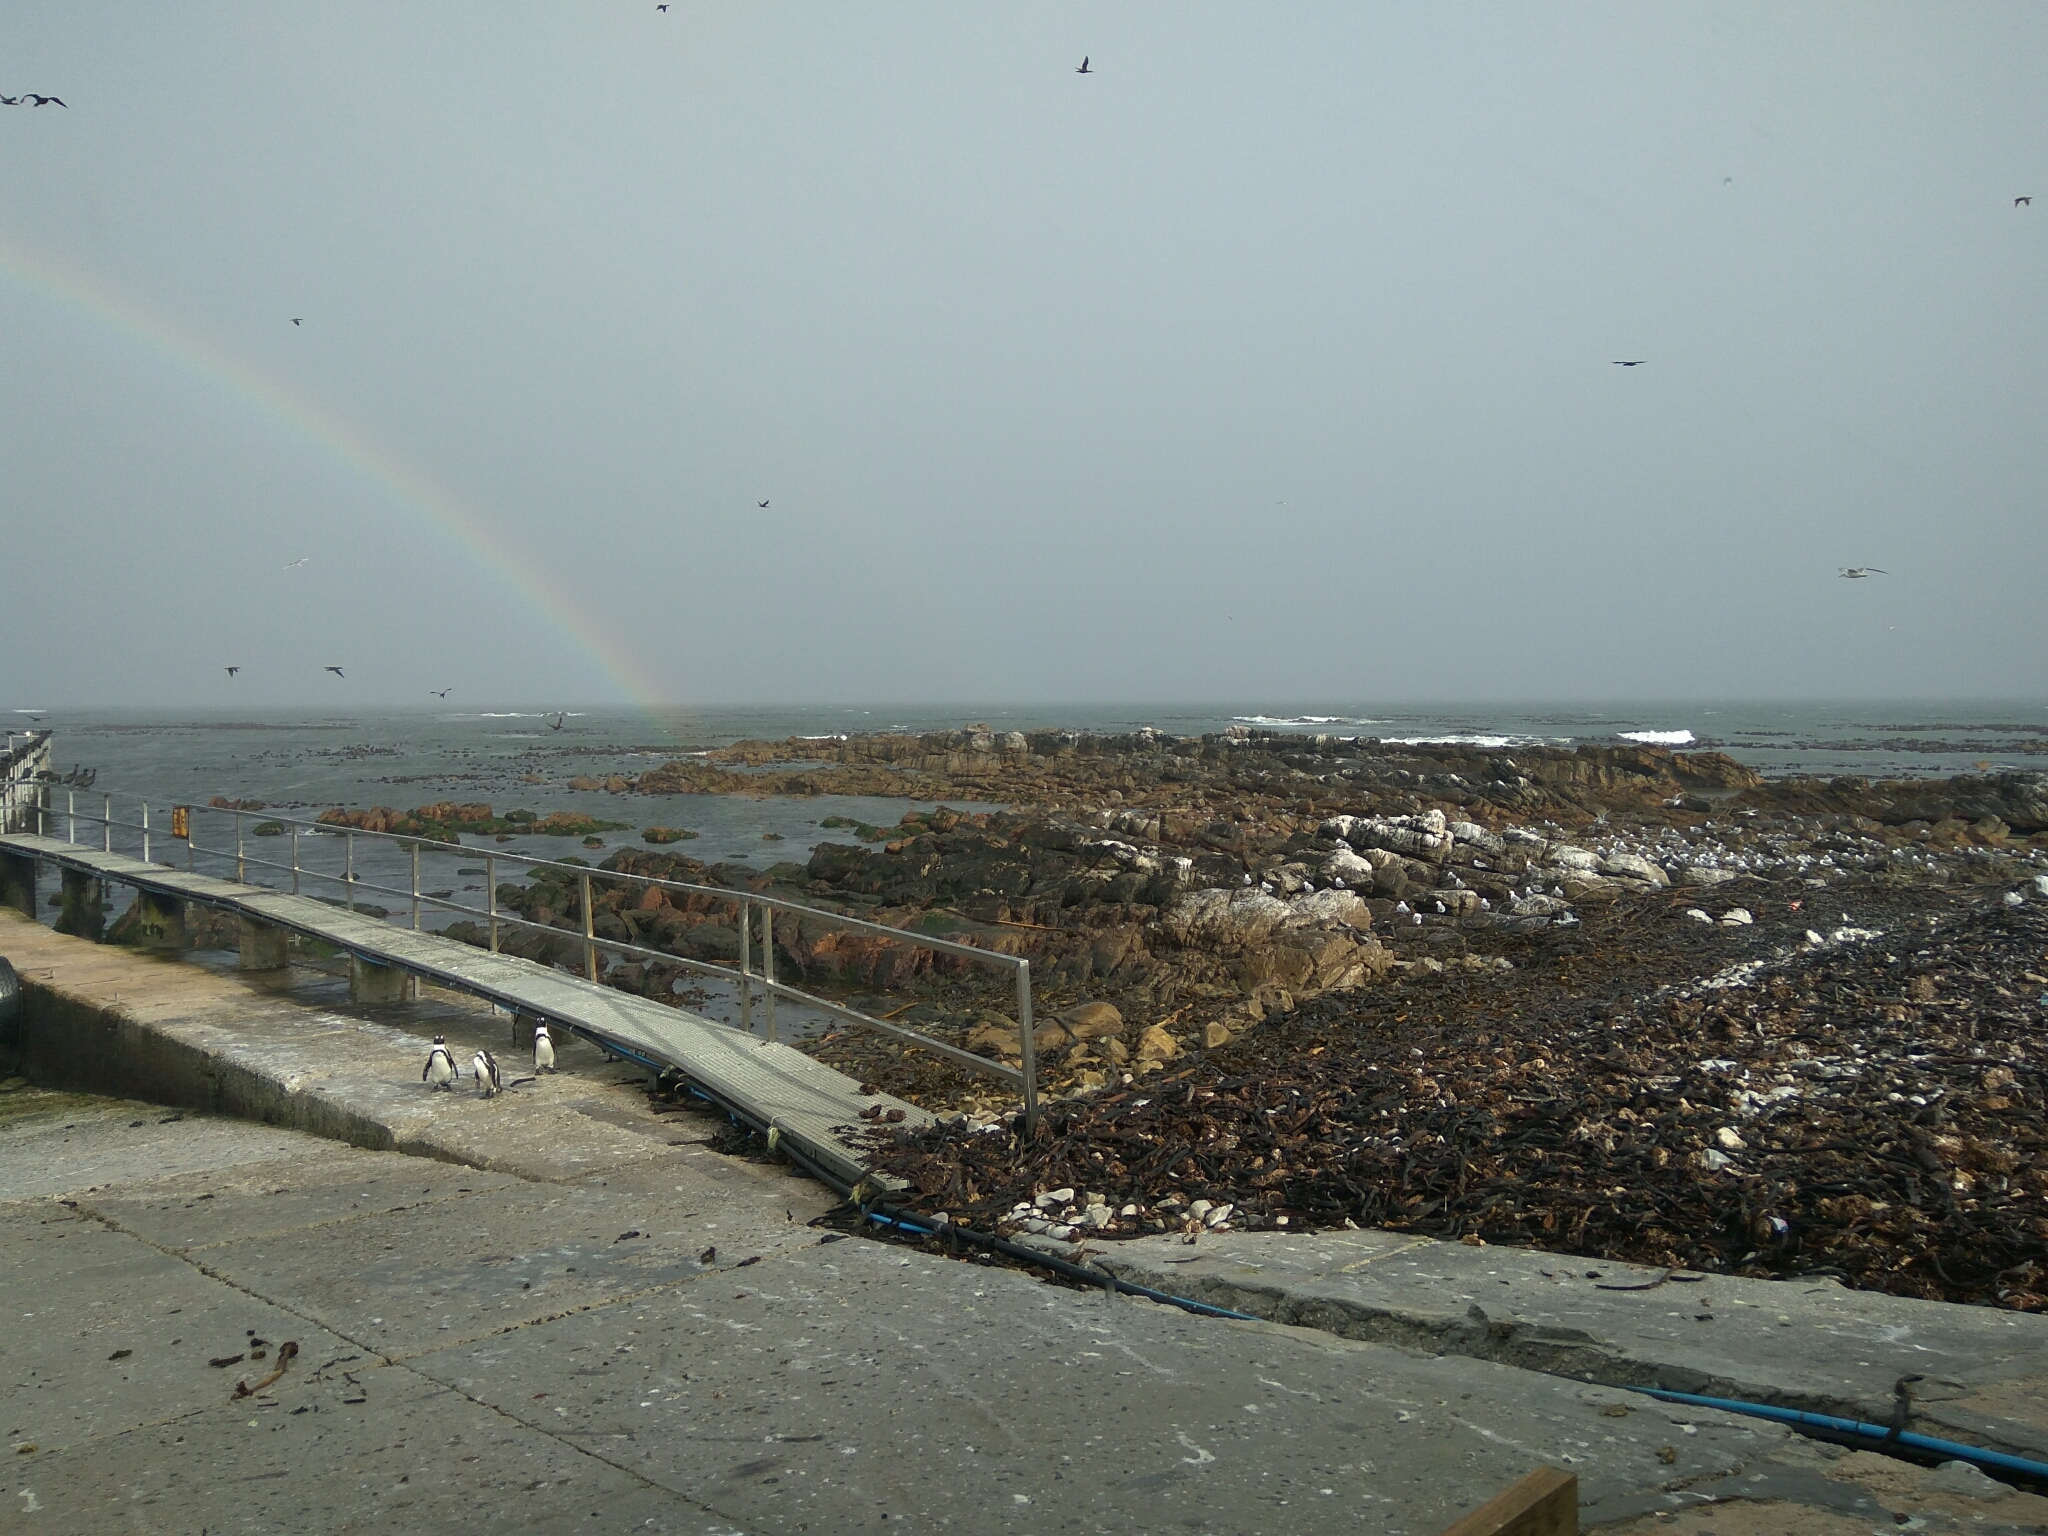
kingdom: Animalia
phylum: Chordata
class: Aves
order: Sphenisciformes
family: Spheniscidae
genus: Spheniscus
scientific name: Spheniscus demersus
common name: African penguin
